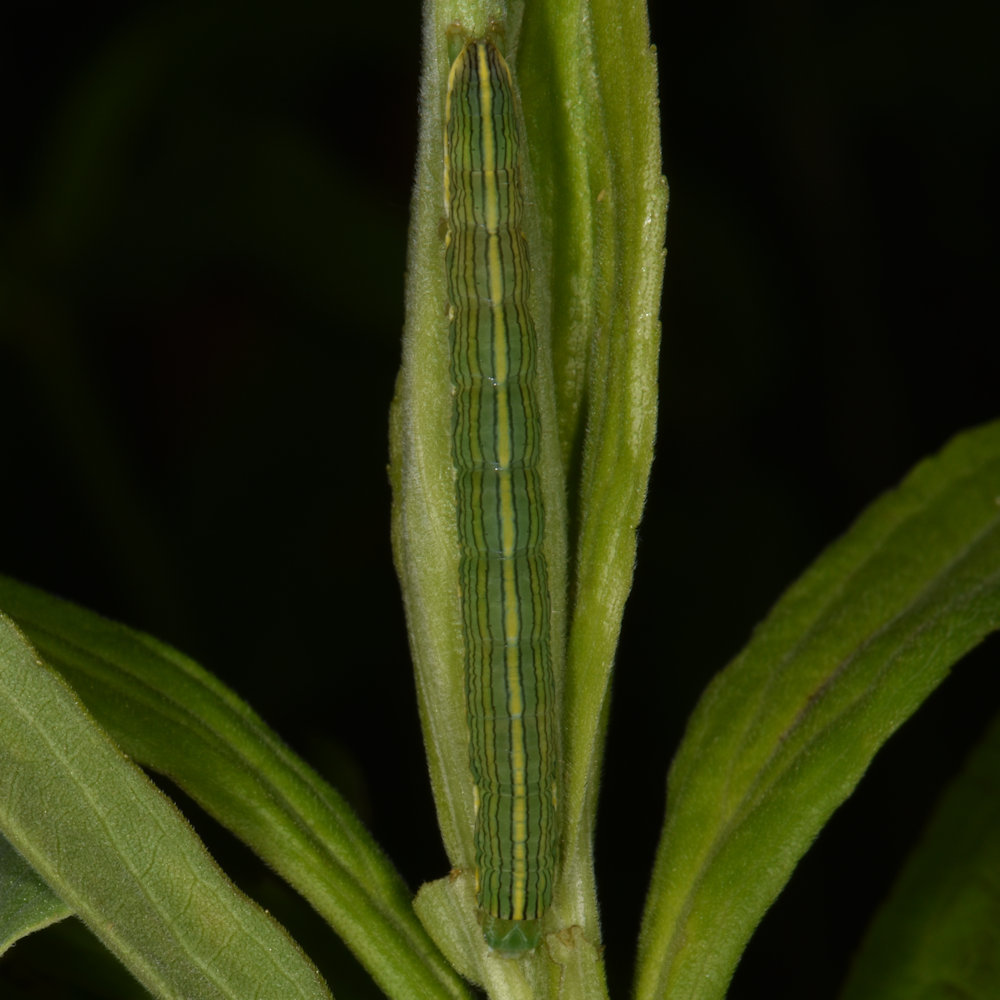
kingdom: Animalia
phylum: Arthropoda
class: Insecta
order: Lepidoptera
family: Noctuidae
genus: Cucullia
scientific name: Cucullia asteroides
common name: Asteroid moth
